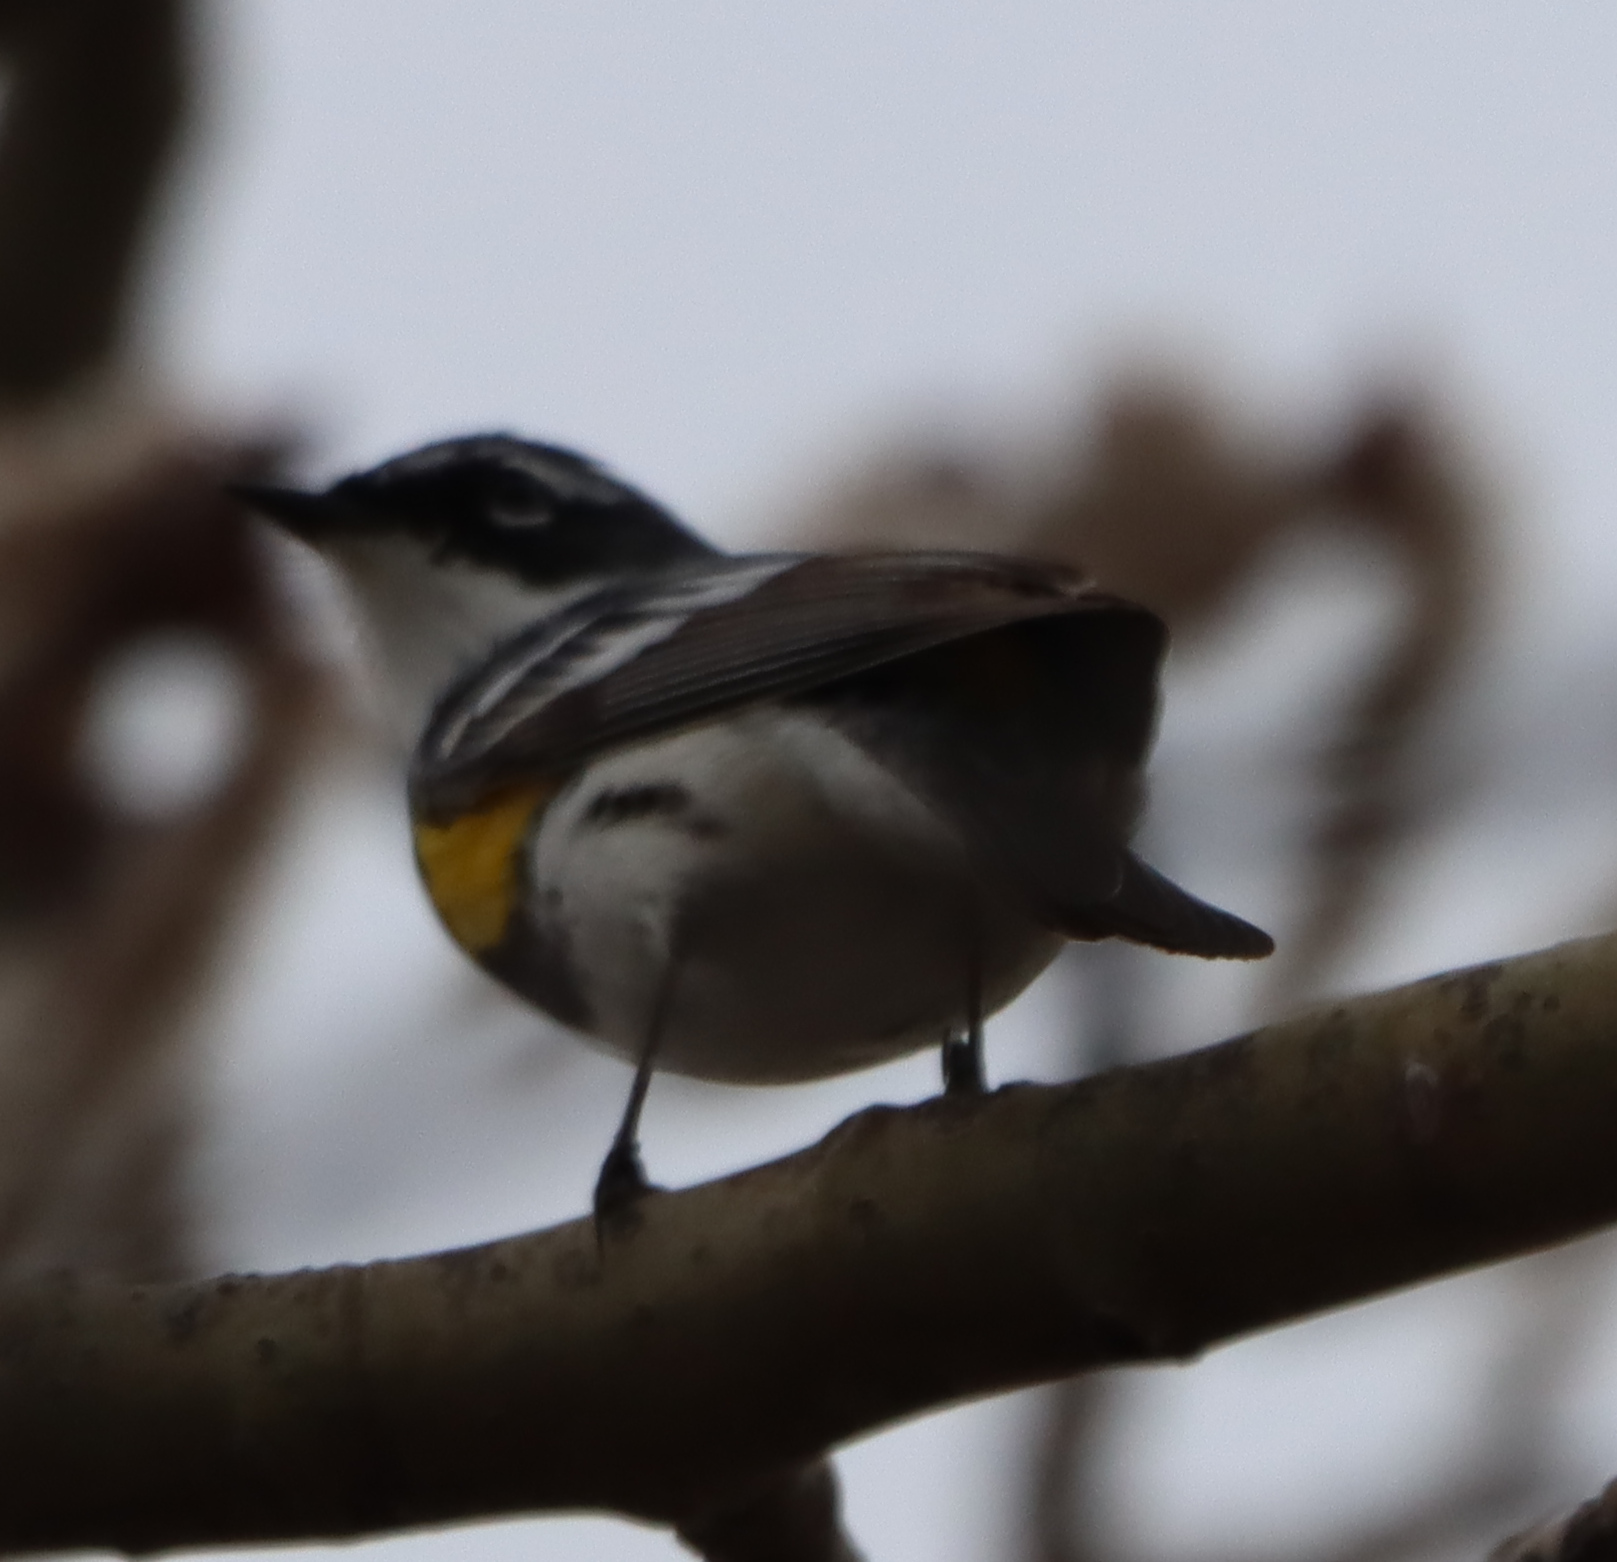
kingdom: Animalia
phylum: Chordata
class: Aves
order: Passeriformes
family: Parulidae
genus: Setophaga
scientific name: Setophaga coronata
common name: Myrtle warbler
